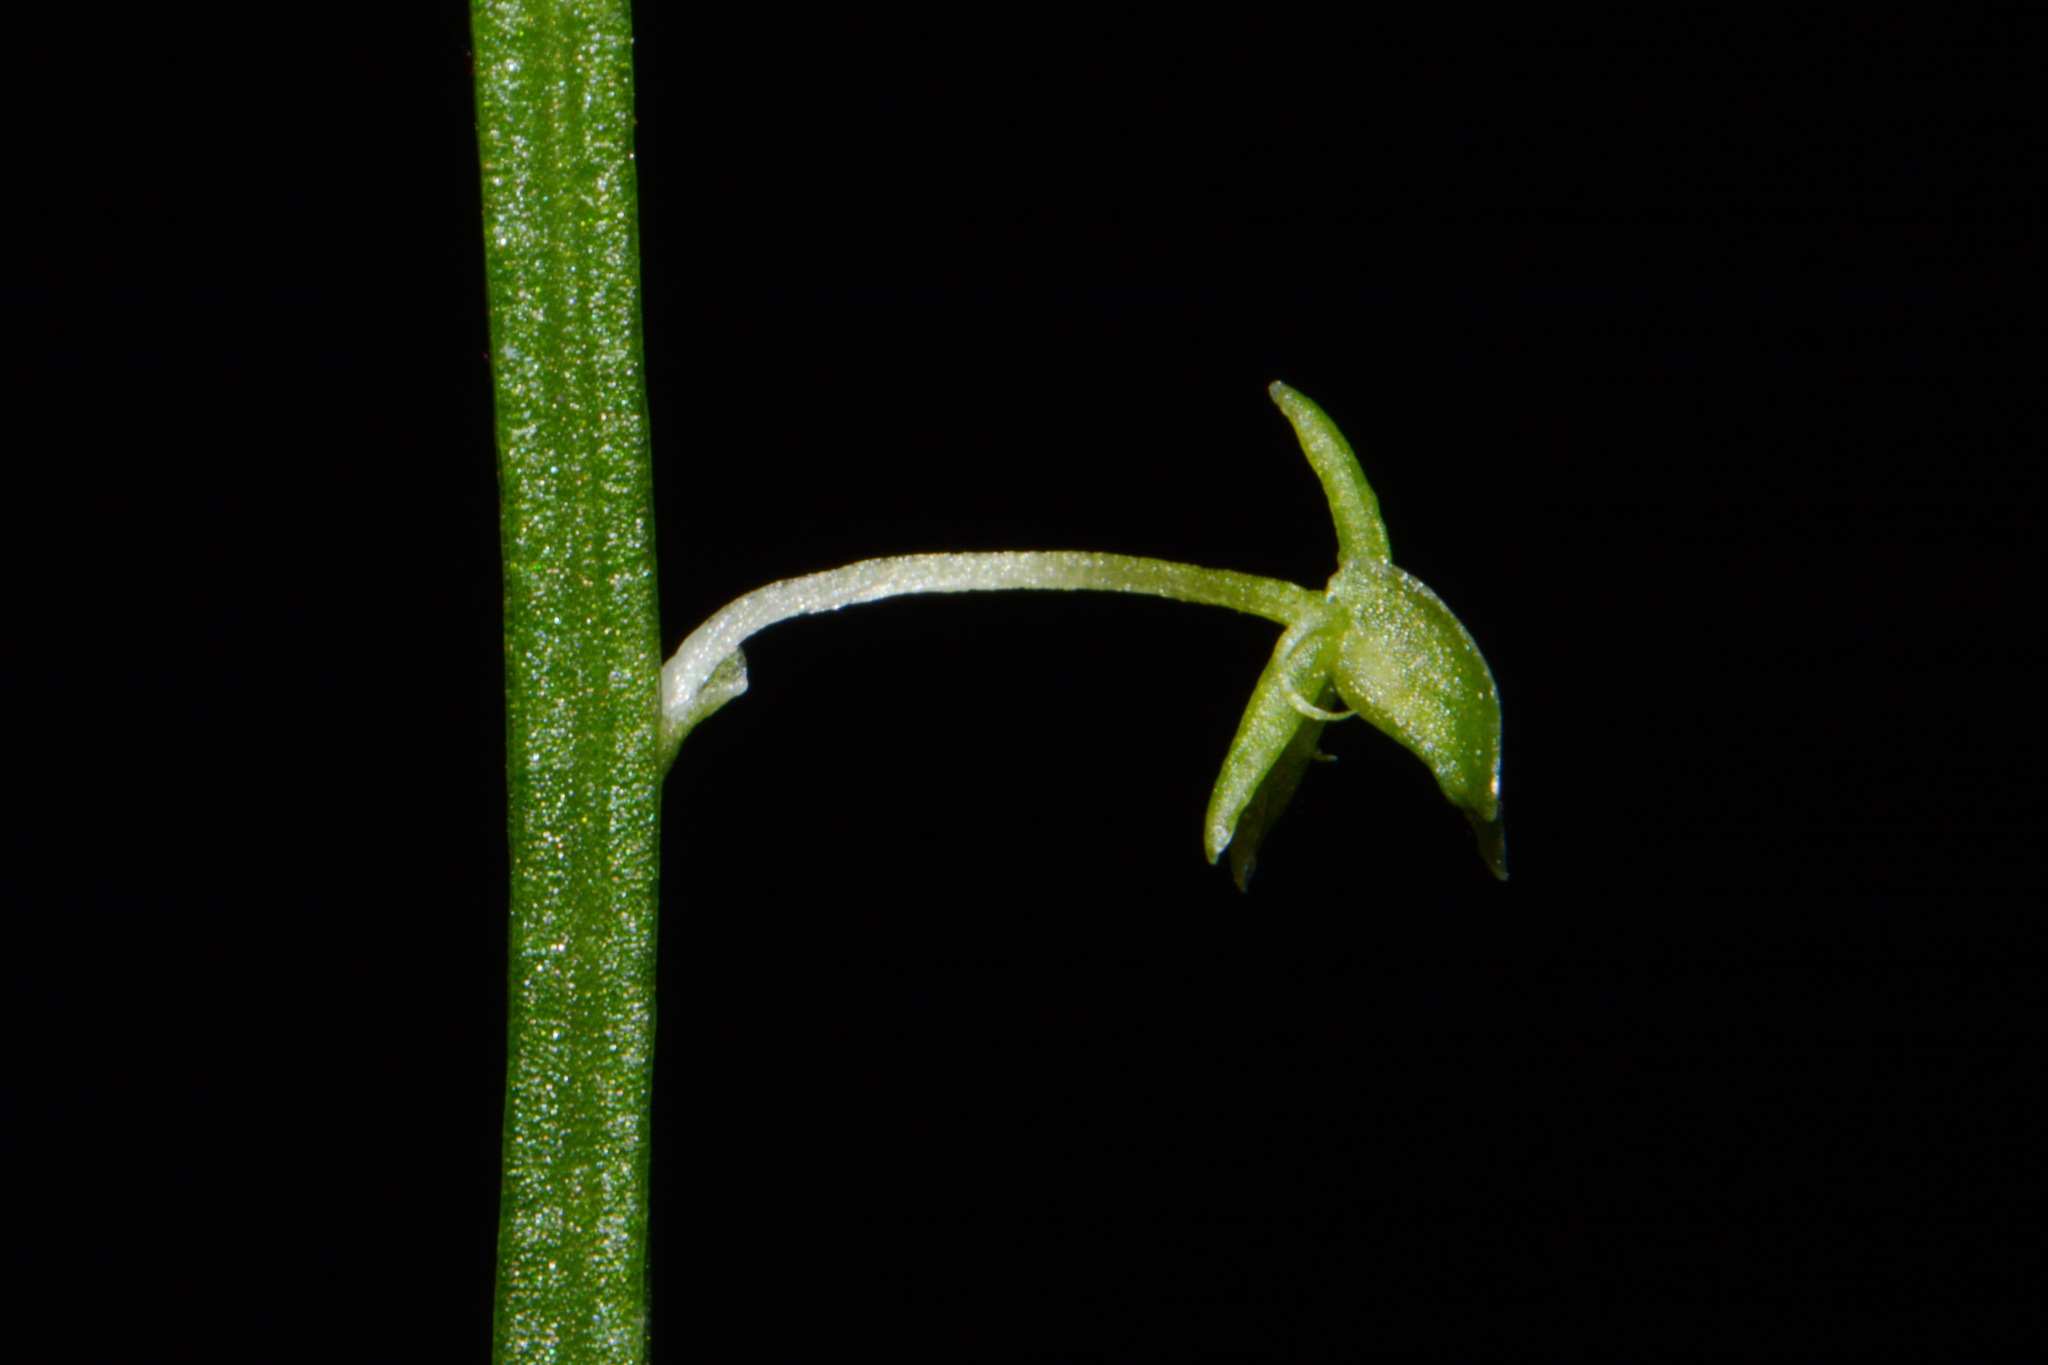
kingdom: Plantae
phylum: Tracheophyta
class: Liliopsida
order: Asparagales
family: Orchidaceae
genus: Malaxis
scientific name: Malaxis unifolia
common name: Green adder's-mouth
